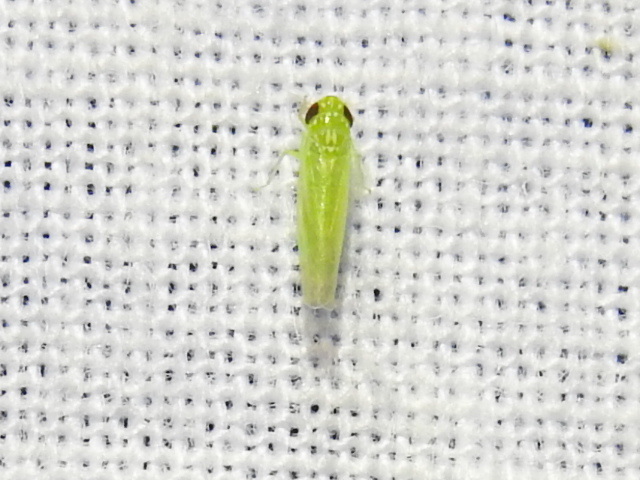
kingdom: Animalia
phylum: Arthropoda
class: Insecta
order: Hemiptera
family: Cicadellidae
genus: Empoasca
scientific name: Empoasca fabae
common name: Potato leafhopper
